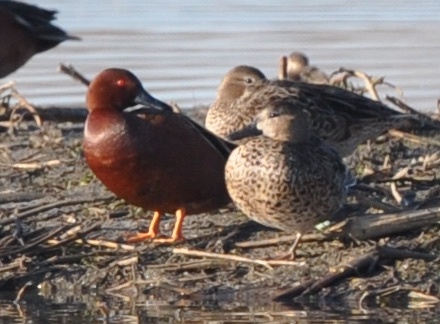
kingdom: Animalia
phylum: Chordata
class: Aves
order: Anseriformes
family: Anatidae
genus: Spatula
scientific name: Spatula cyanoptera
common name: Cinnamon teal
